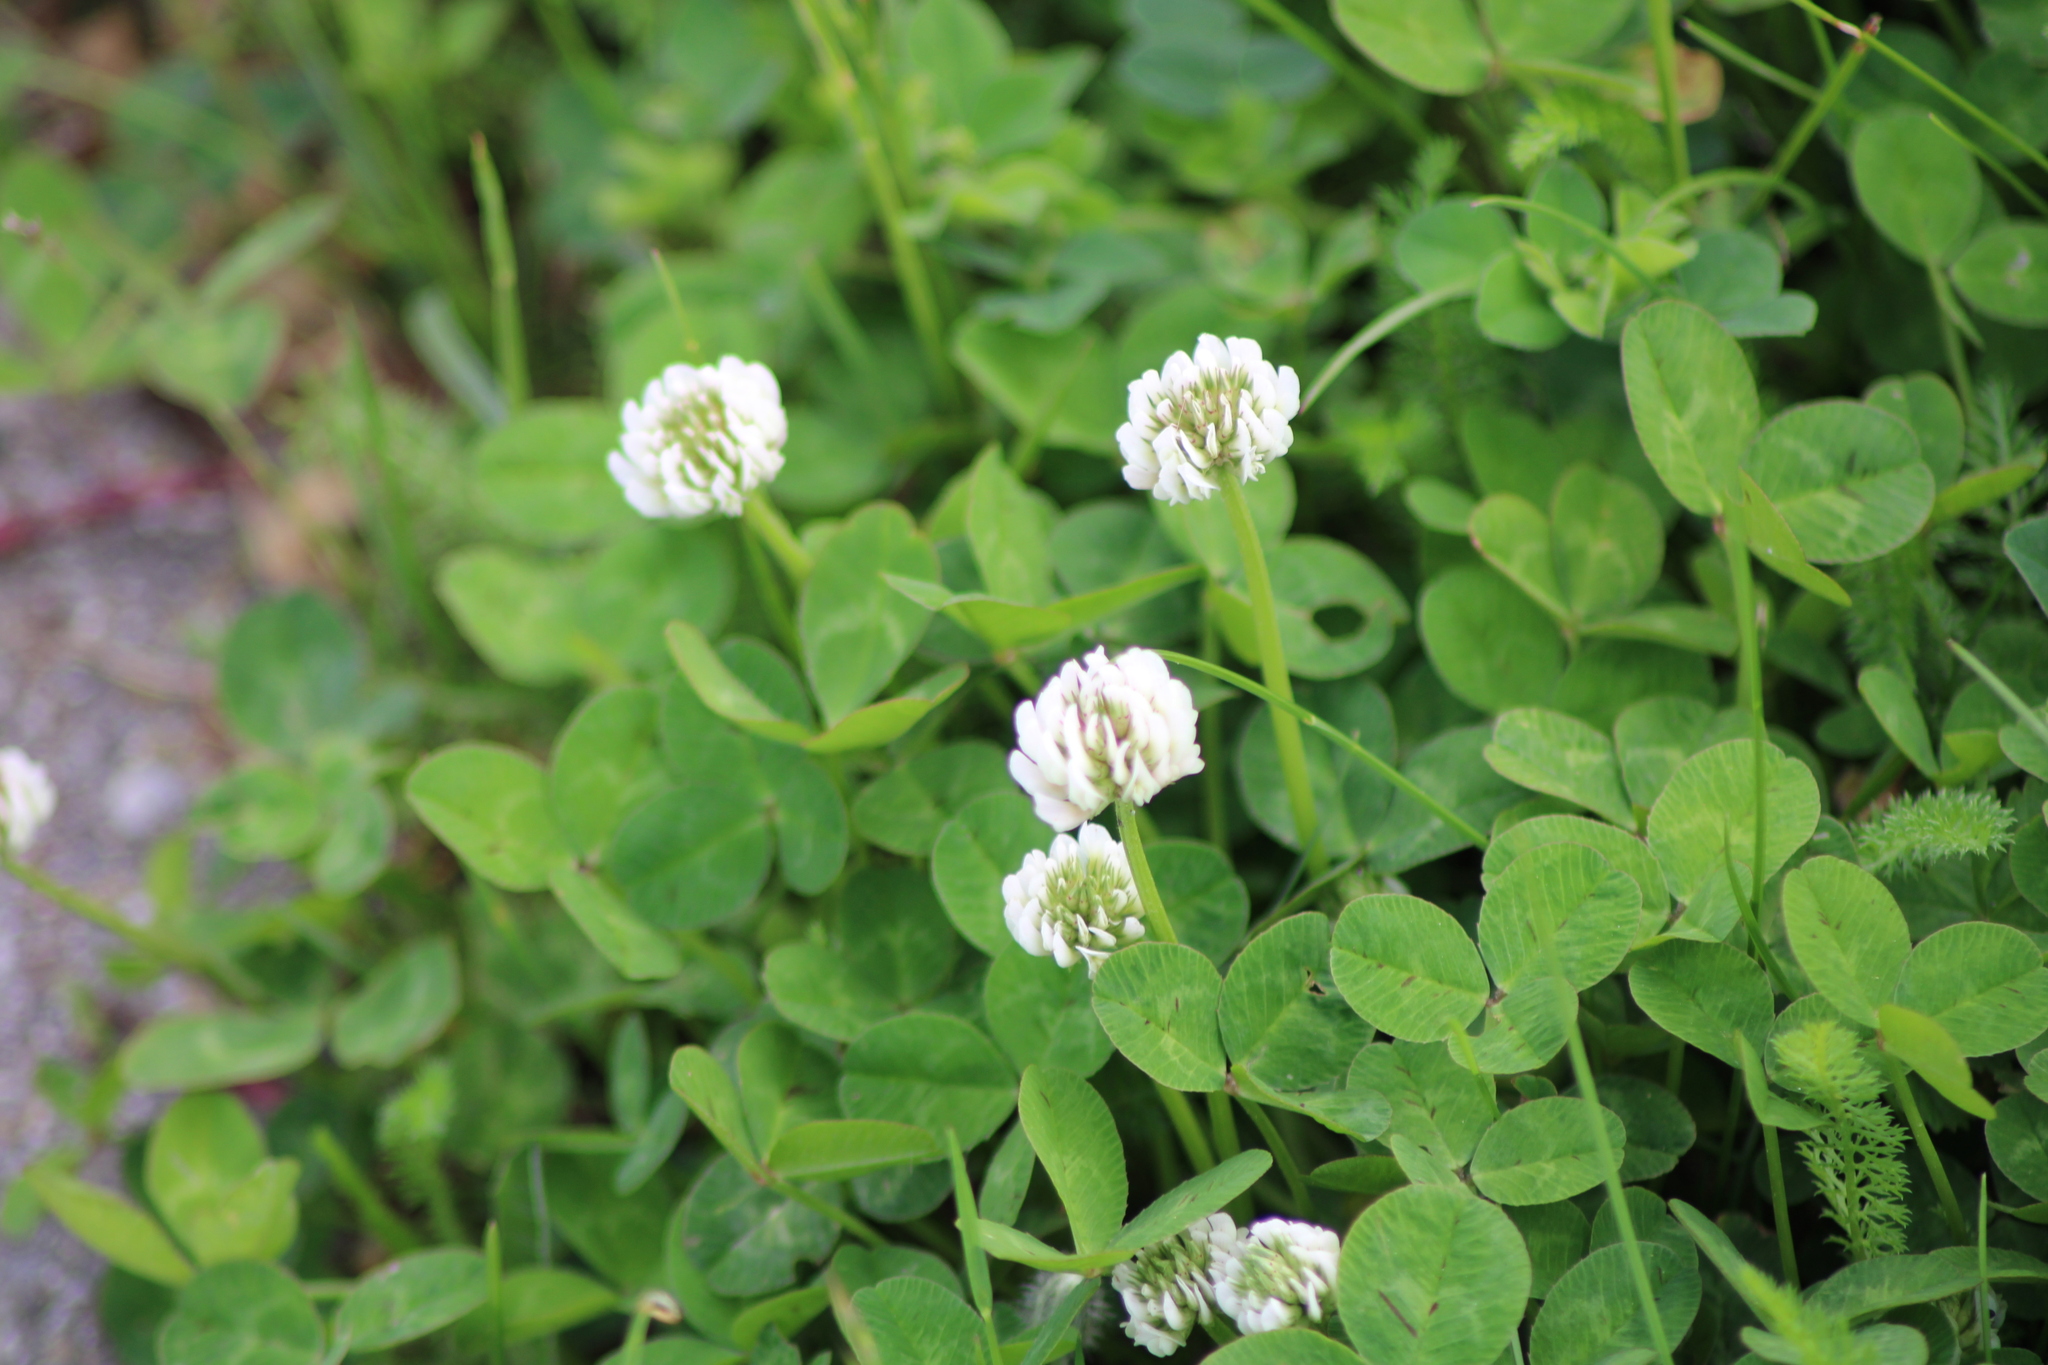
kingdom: Plantae
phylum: Tracheophyta
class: Magnoliopsida
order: Fabales
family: Fabaceae
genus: Trifolium
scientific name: Trifolium repens
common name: White clover
